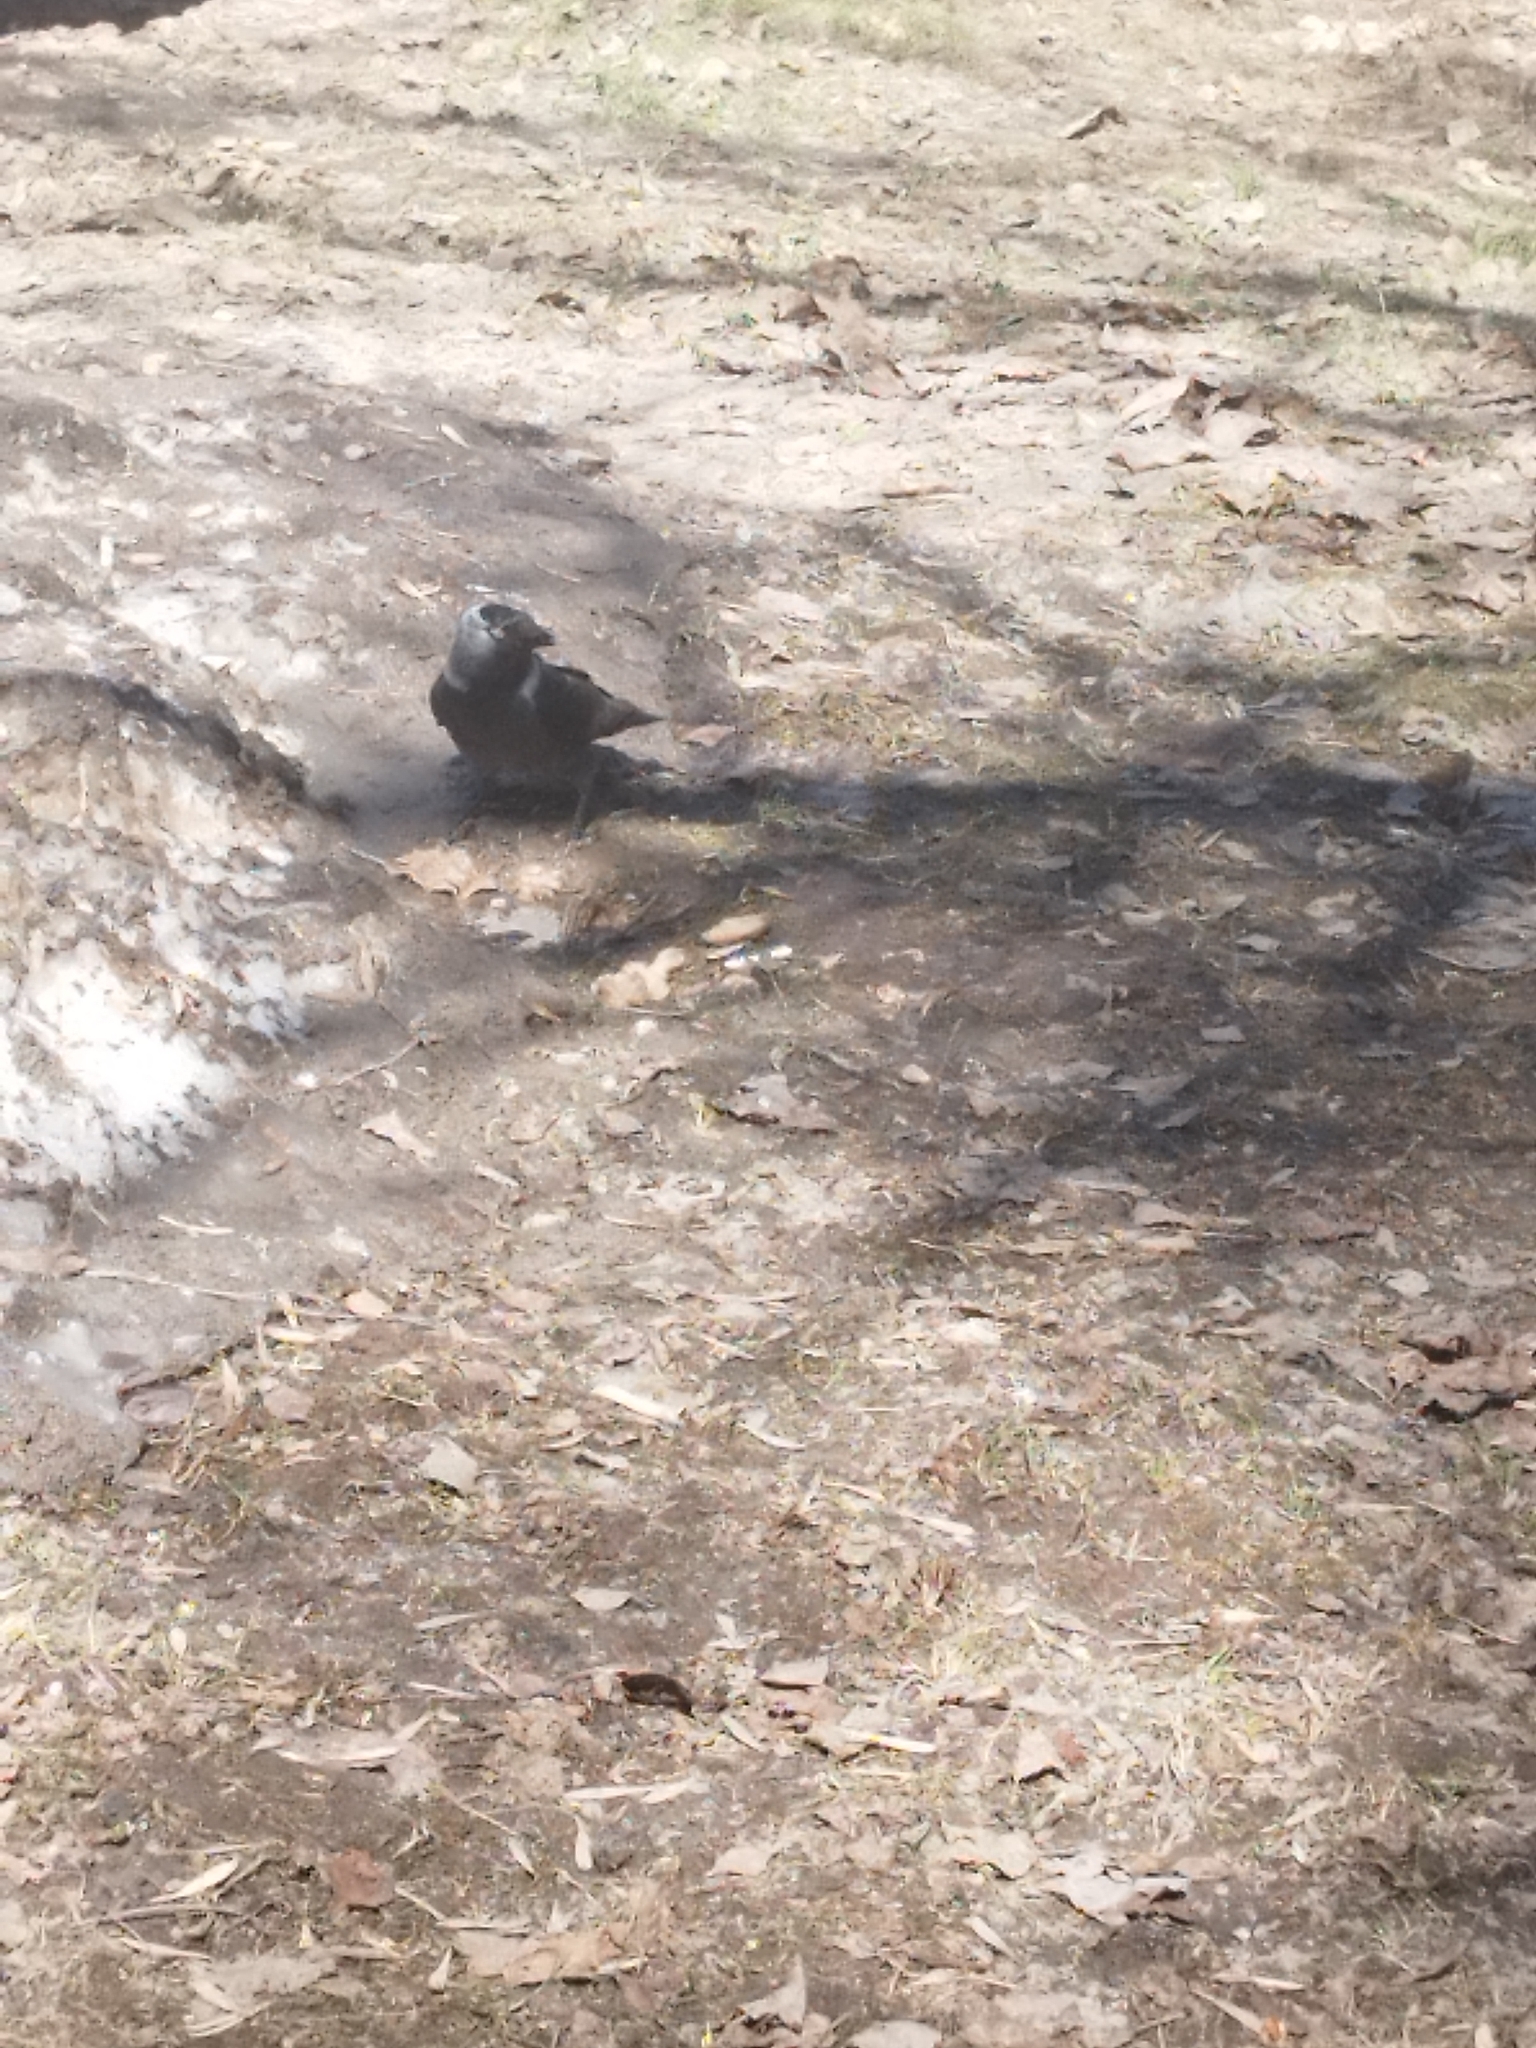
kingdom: Animalia
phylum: Chordata
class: Aves
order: Passeriformes
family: Corvidae
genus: Coloeus
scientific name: Coloeus monedula
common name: Western jackdaw
